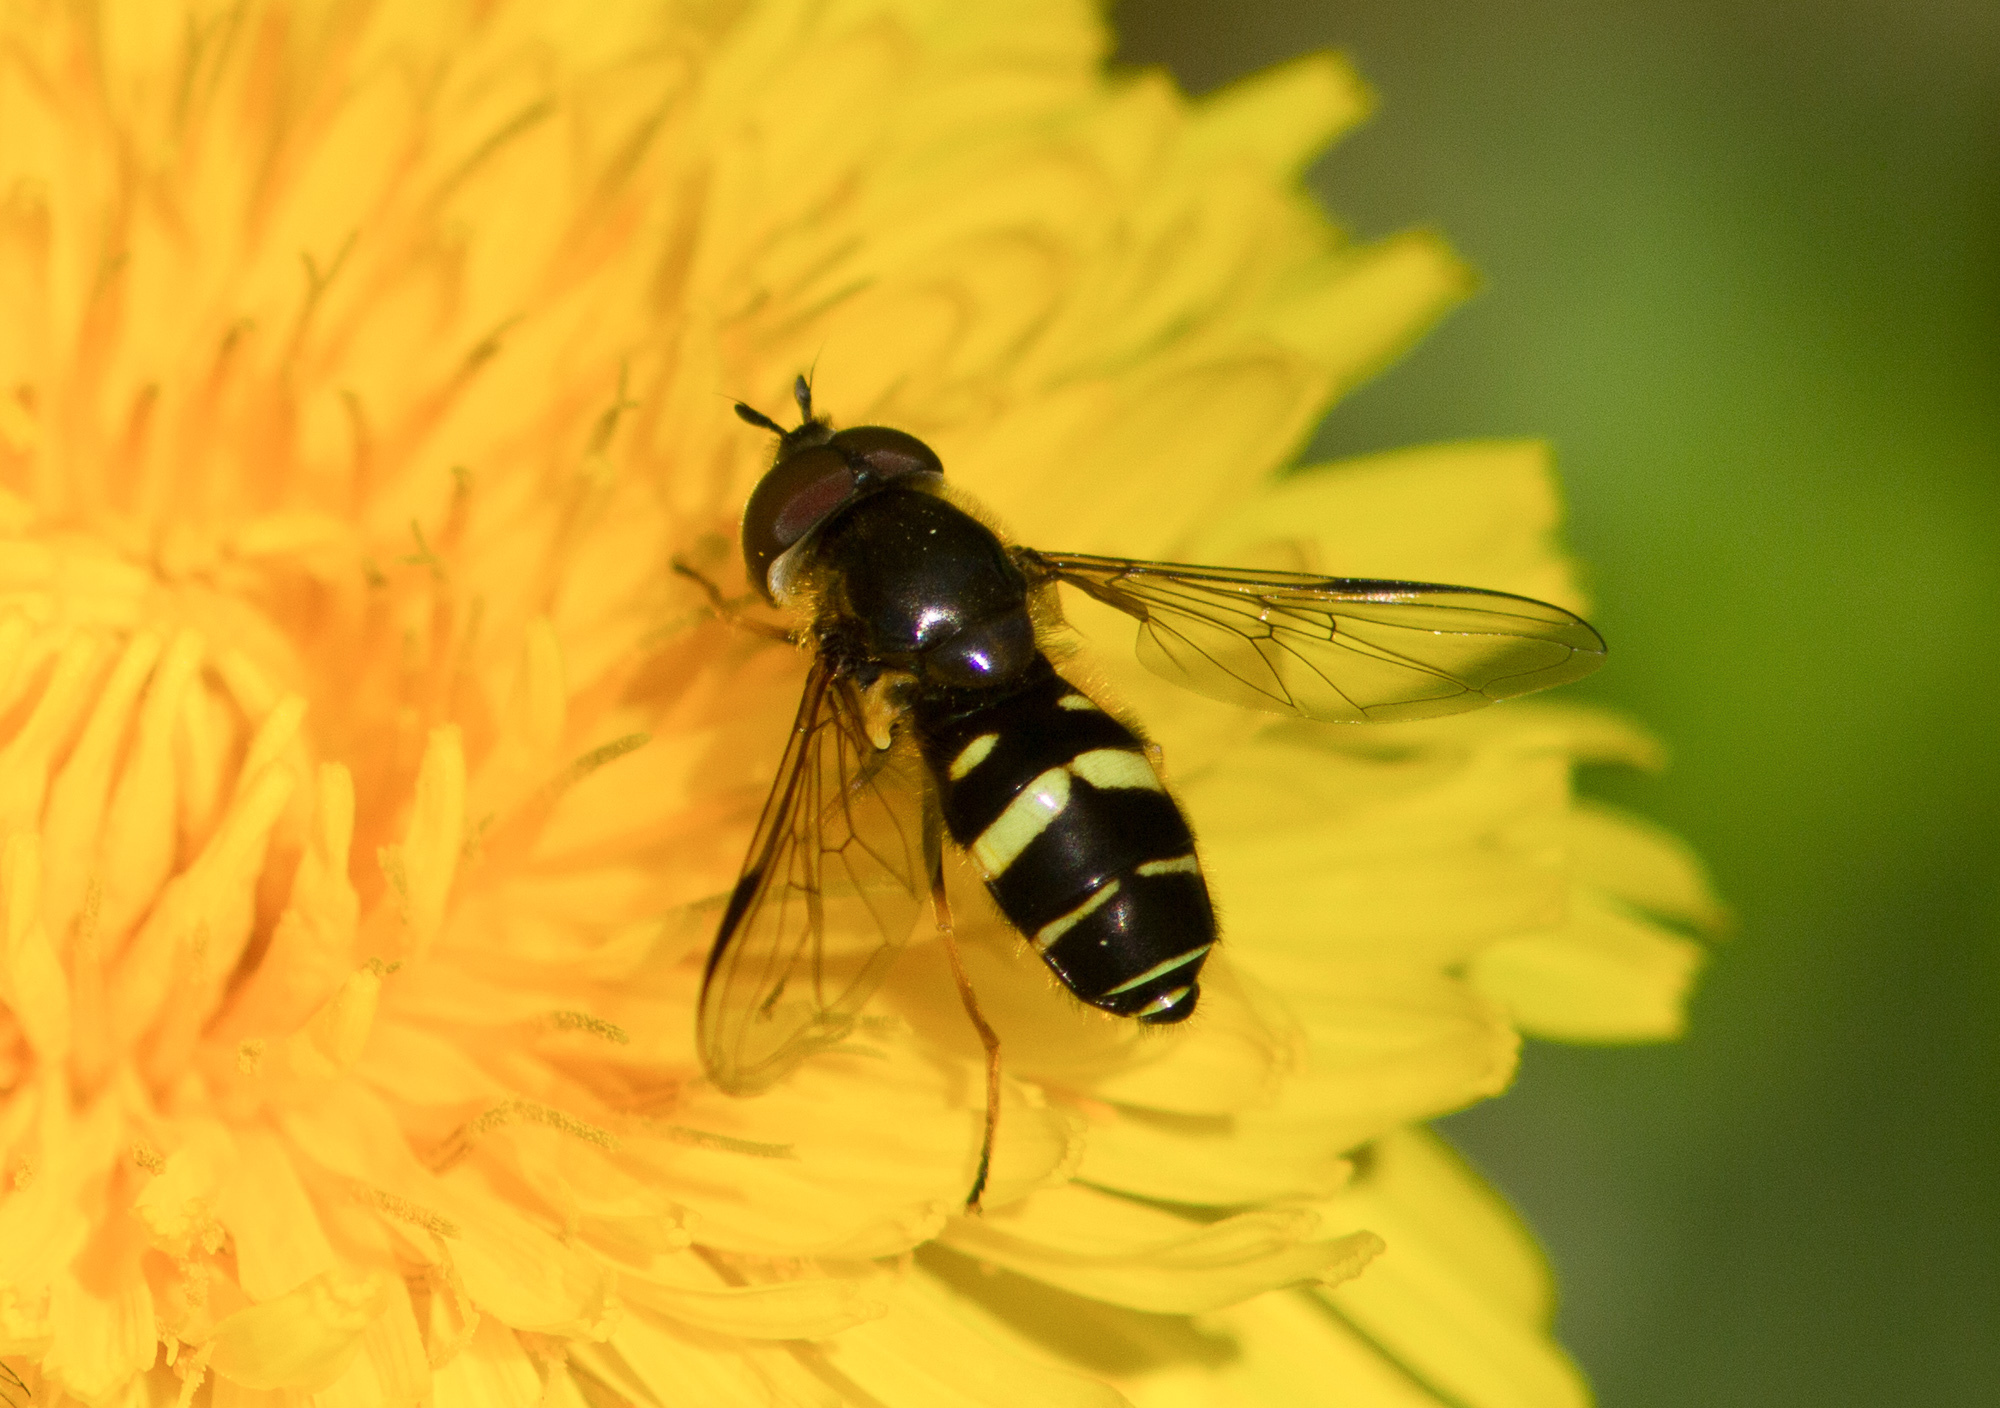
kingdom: Animalia
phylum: Arthropoda
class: Insecta
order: Diptera
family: Syrphidae
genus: Dasysyrphus
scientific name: Dasysyrphus tricinctus
